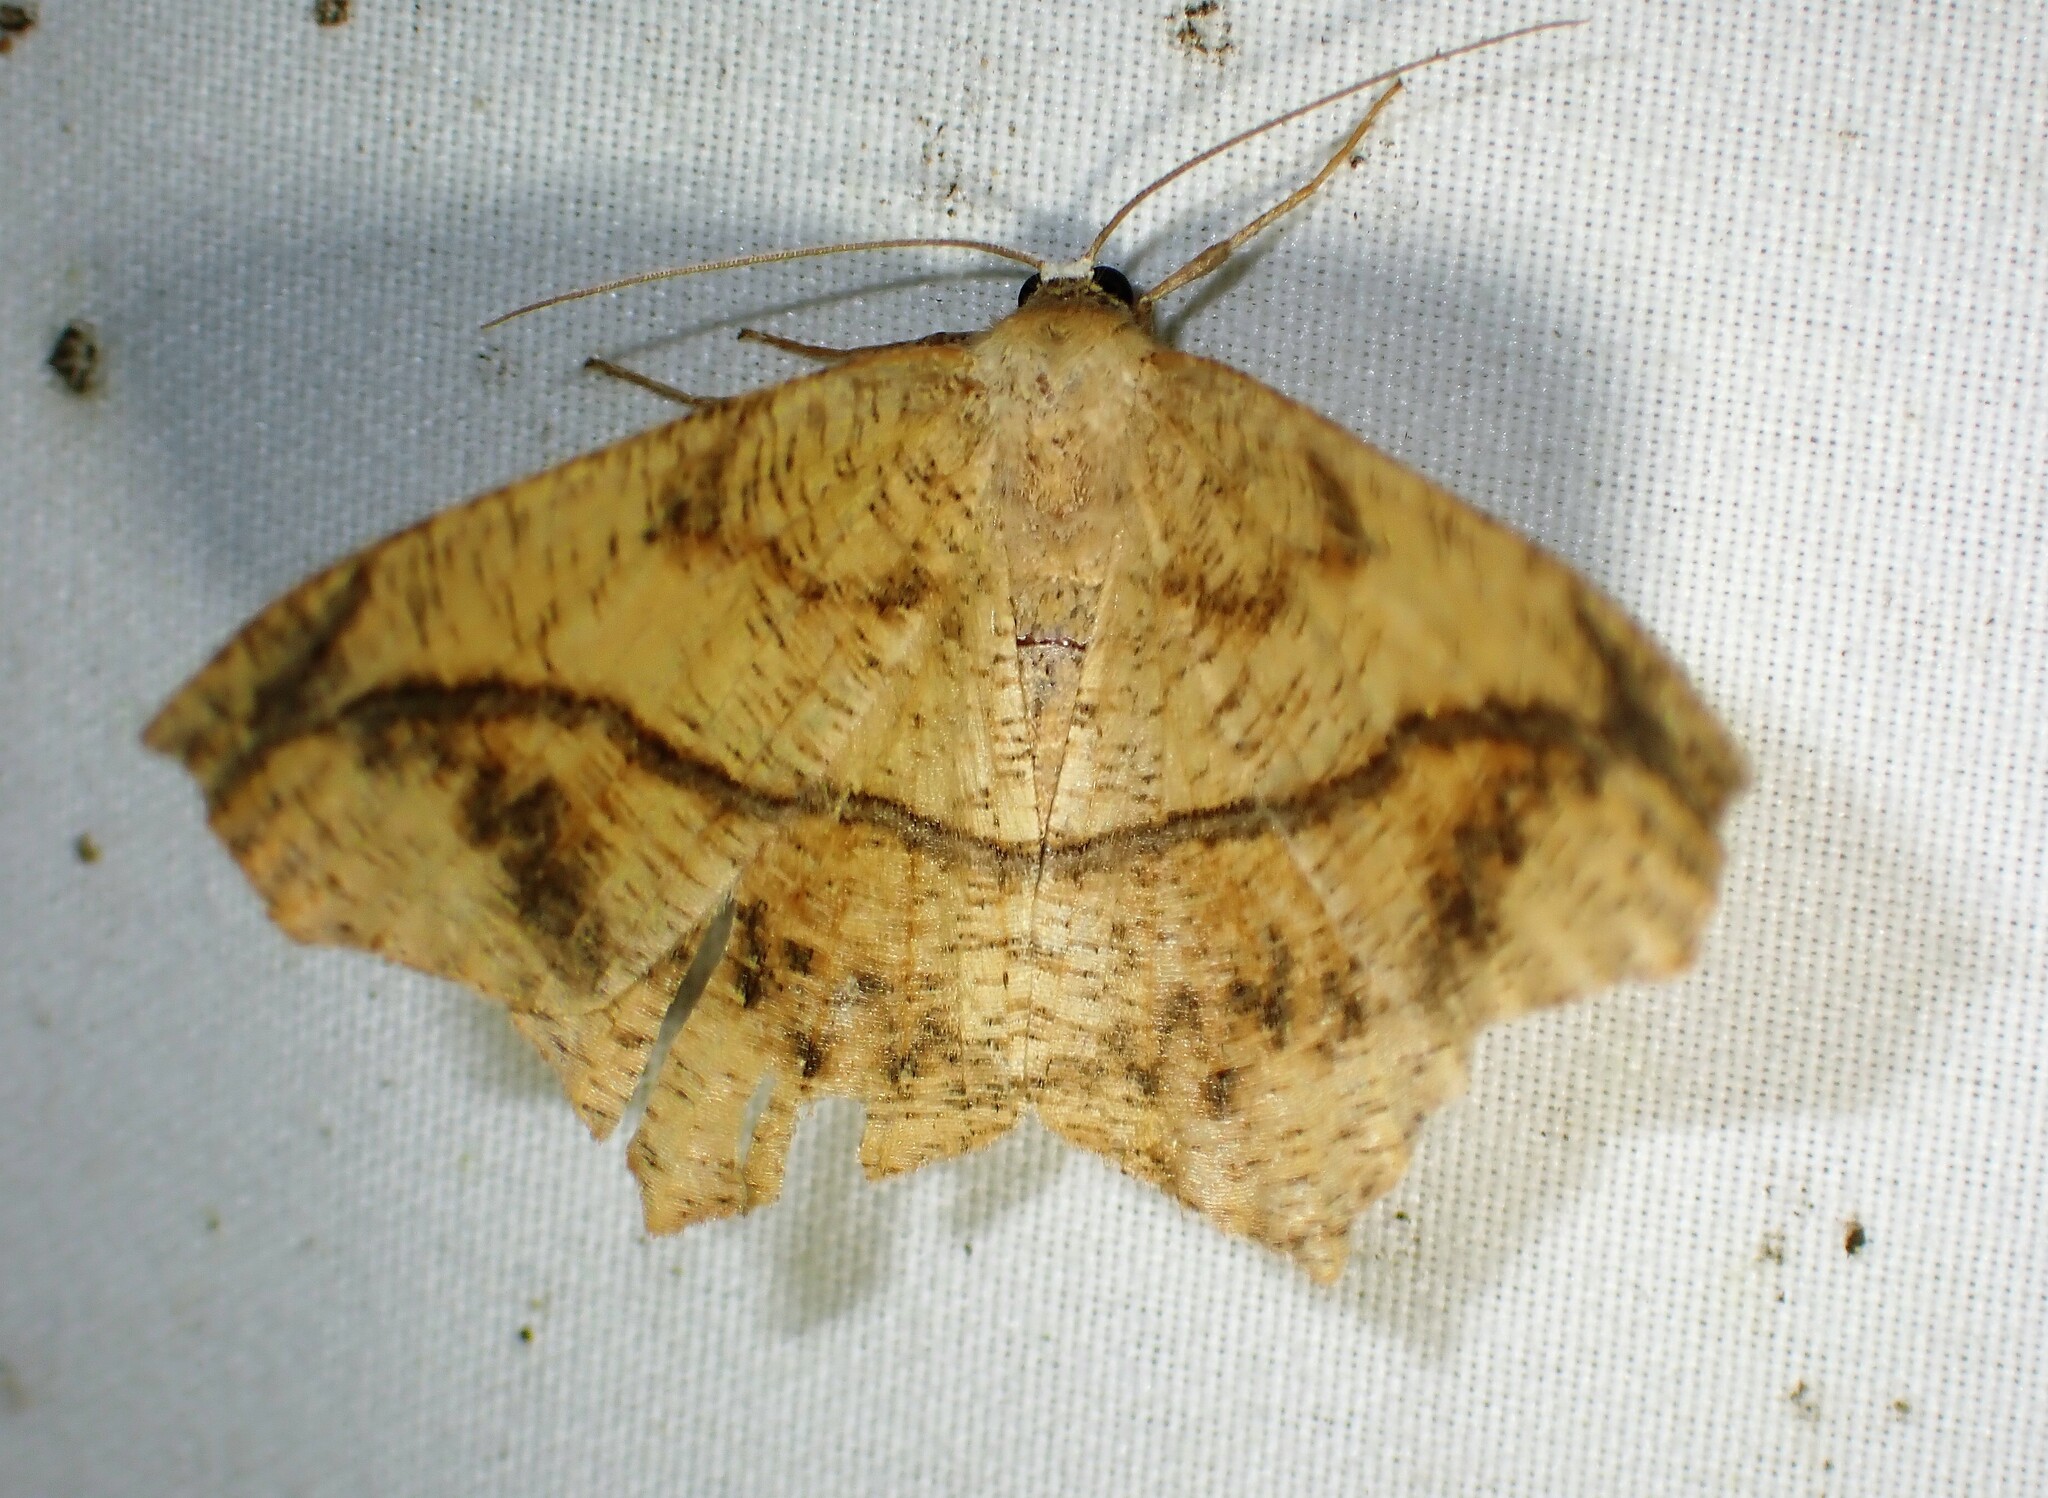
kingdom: Animalia
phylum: Arthropoda
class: Insecta
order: Lepidoptera
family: Geometridae
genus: Prochoerodes
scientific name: Prochoerodes lineola
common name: Large maple spanworm
